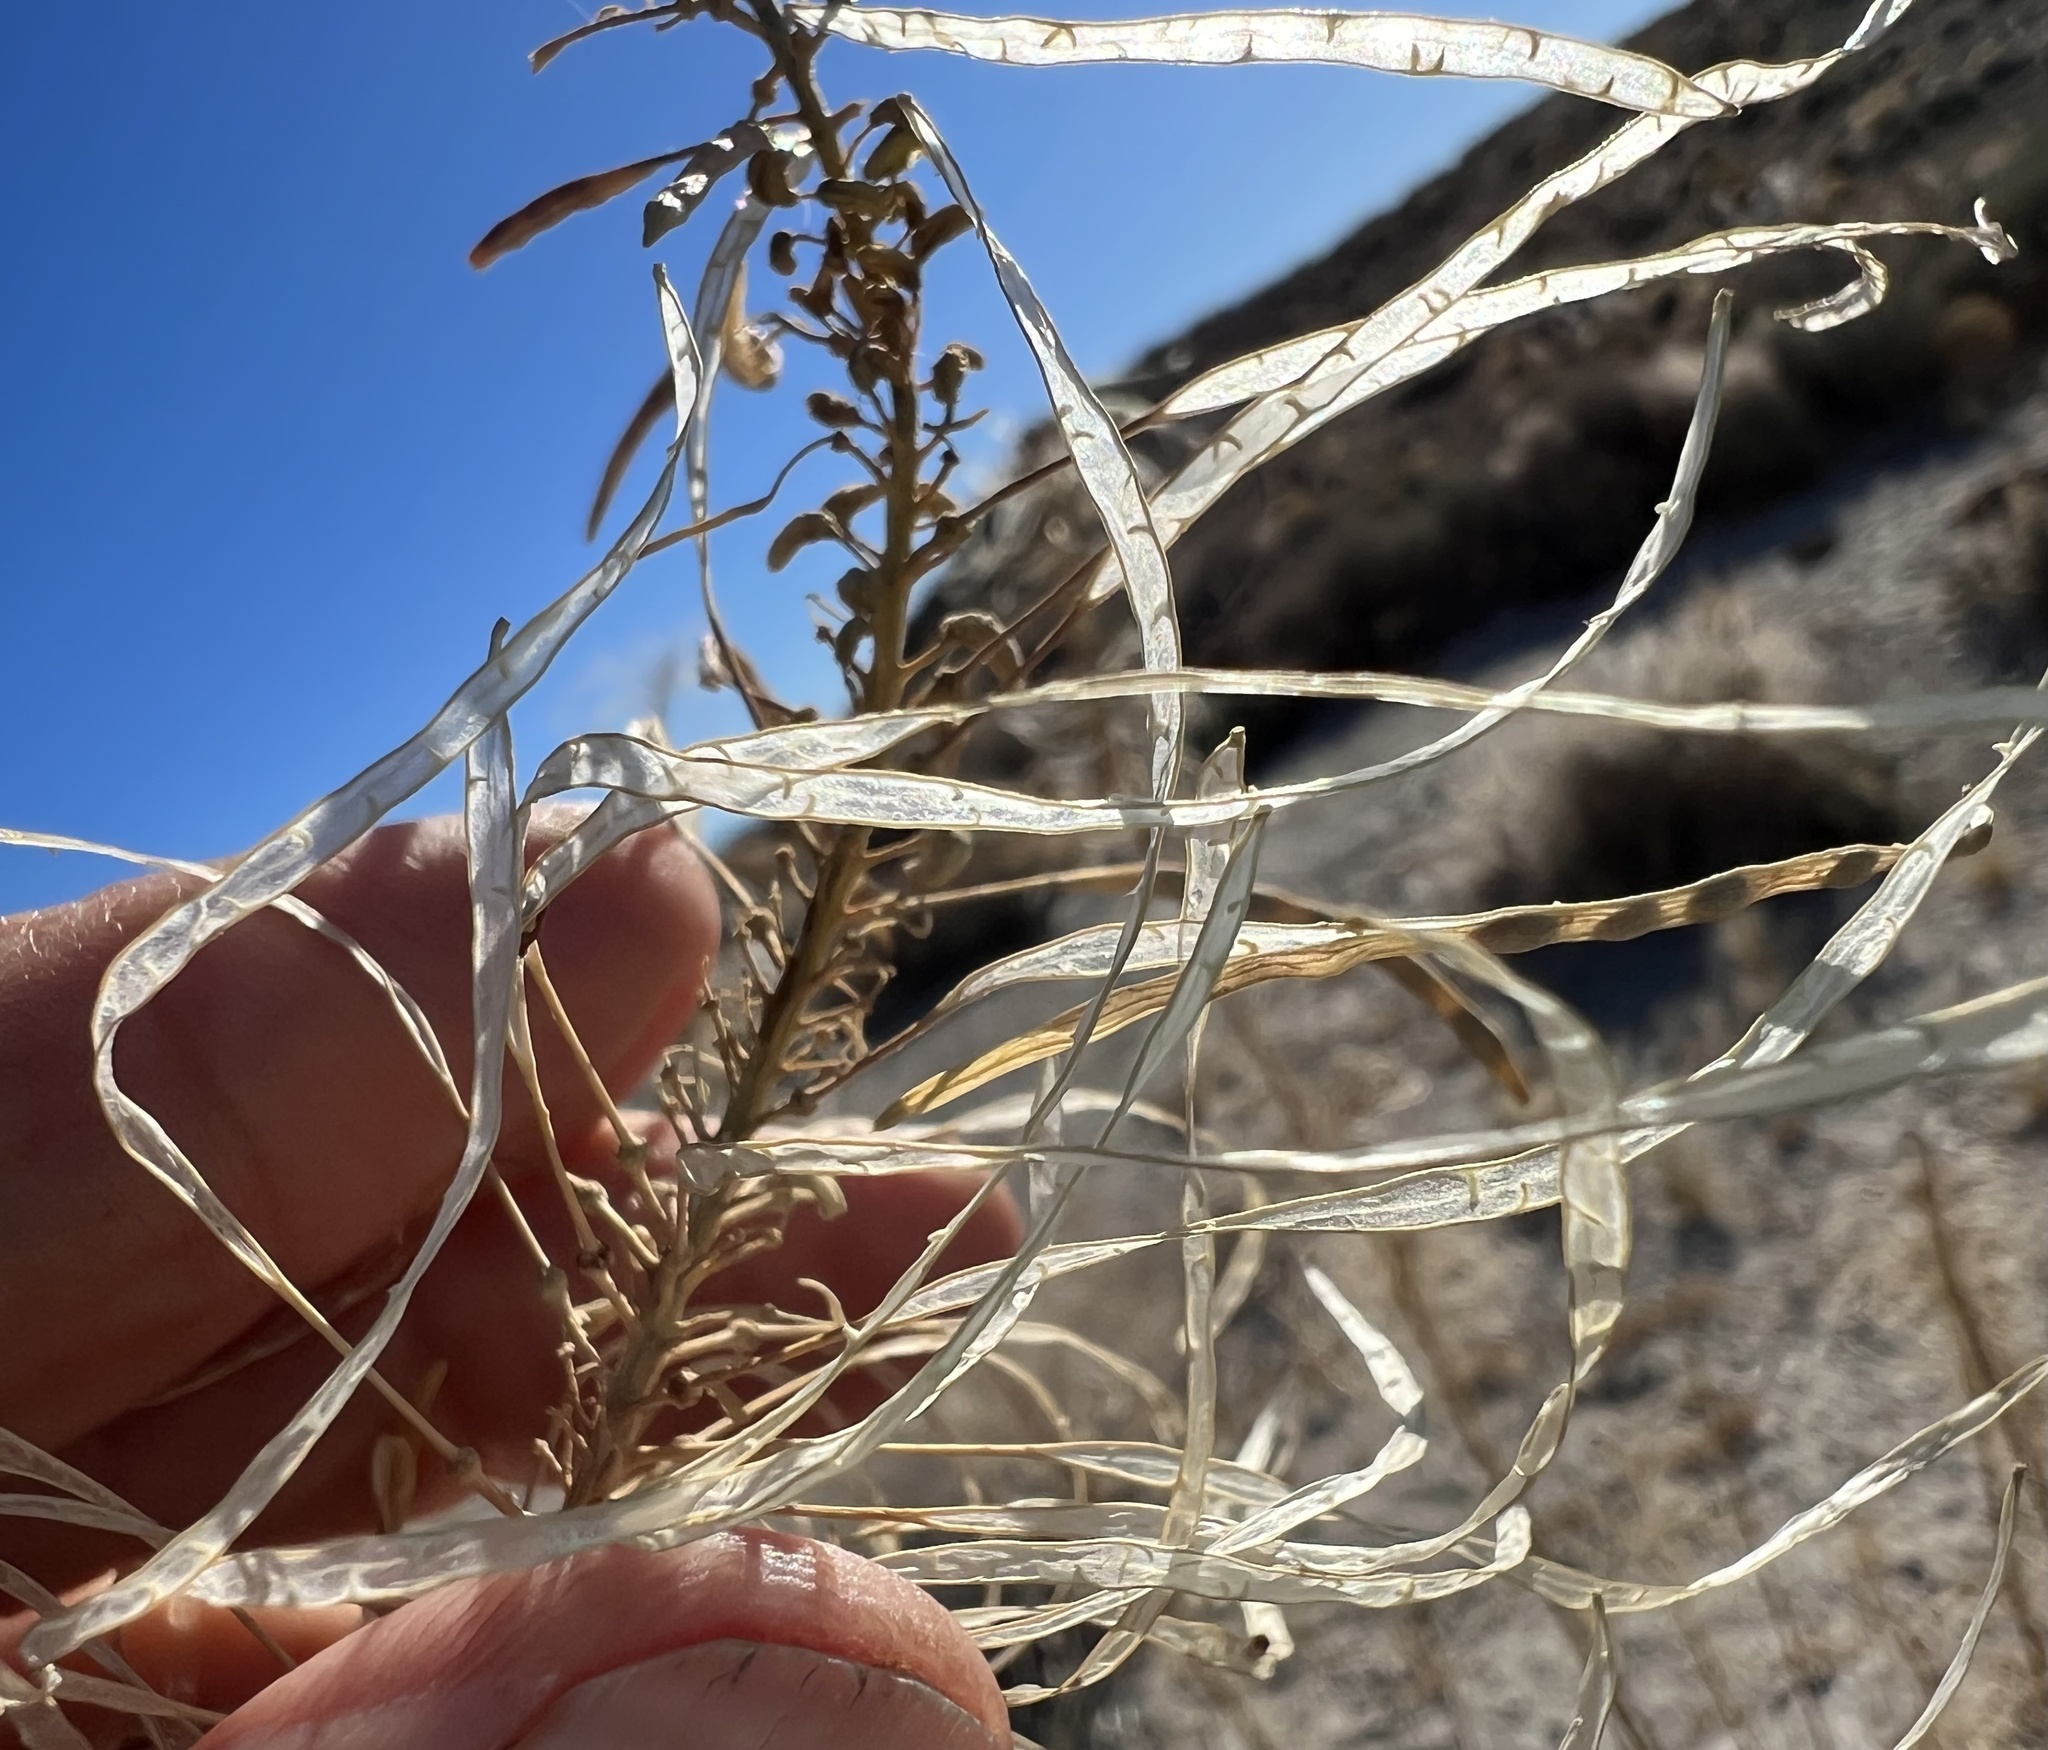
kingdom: Plantae
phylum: Tracheophyta
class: Magnoliopsida
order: Brassicales
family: Brassicaceae
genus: Stanleya
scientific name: Stanleya pinnata
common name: Prince's-plume
